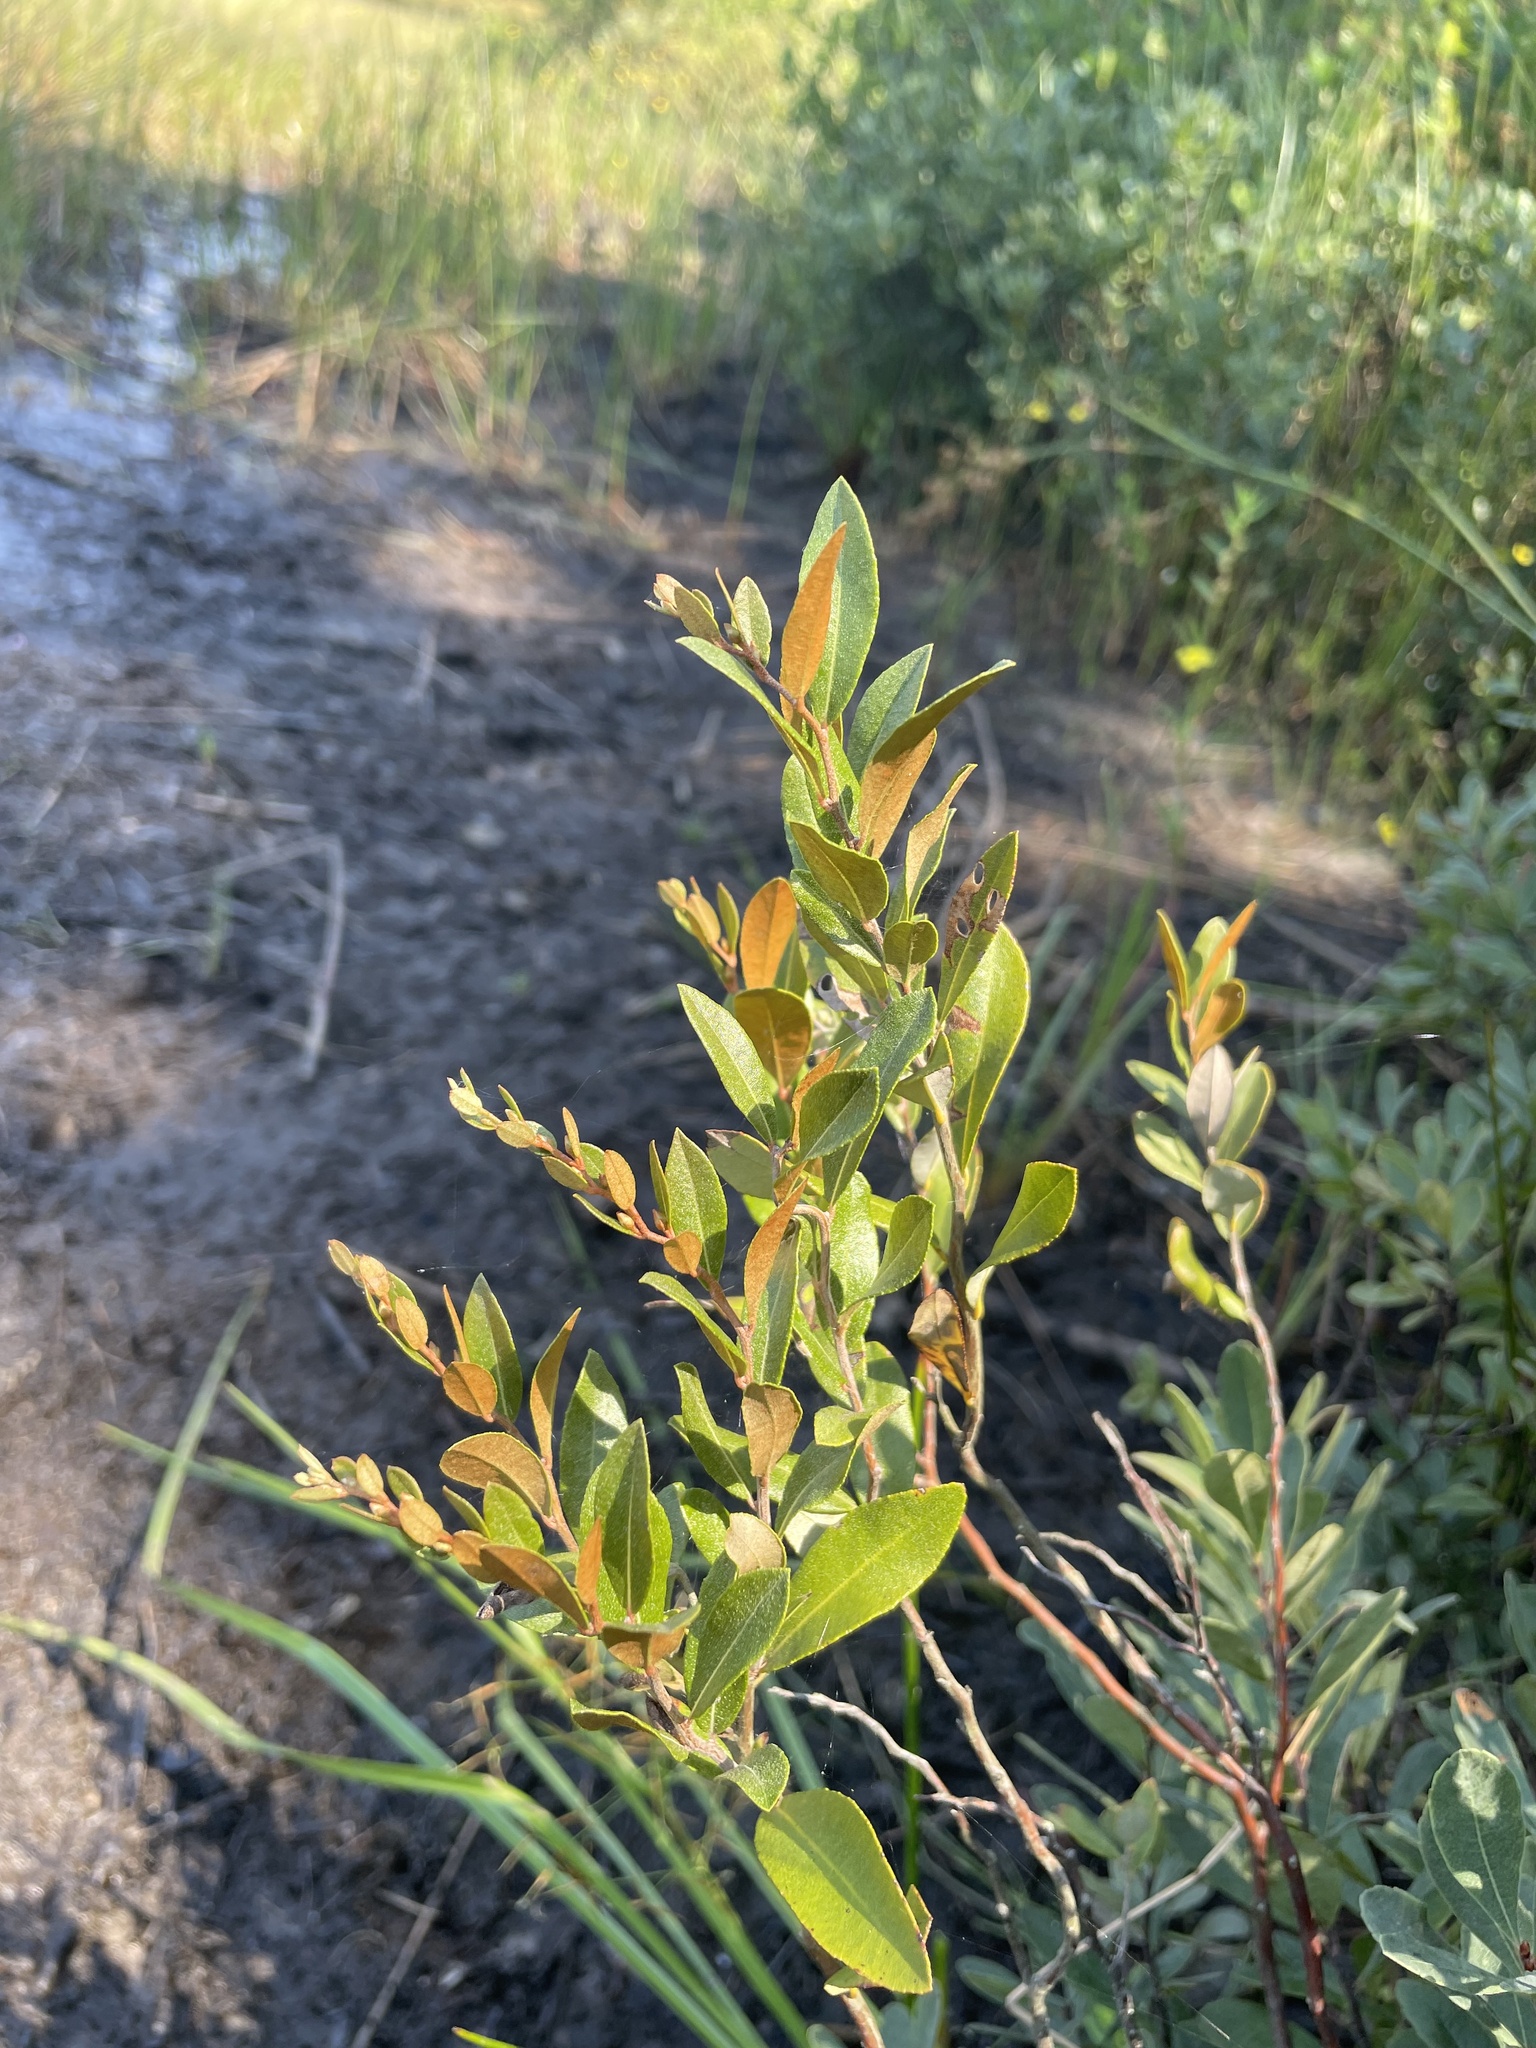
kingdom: Plantae
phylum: Tracheophyta
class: Magnoliopsida
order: Ericales
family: Ericaceae
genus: Chamaedaphne
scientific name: Chamaedaphne calyculata
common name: Leatherleaf
